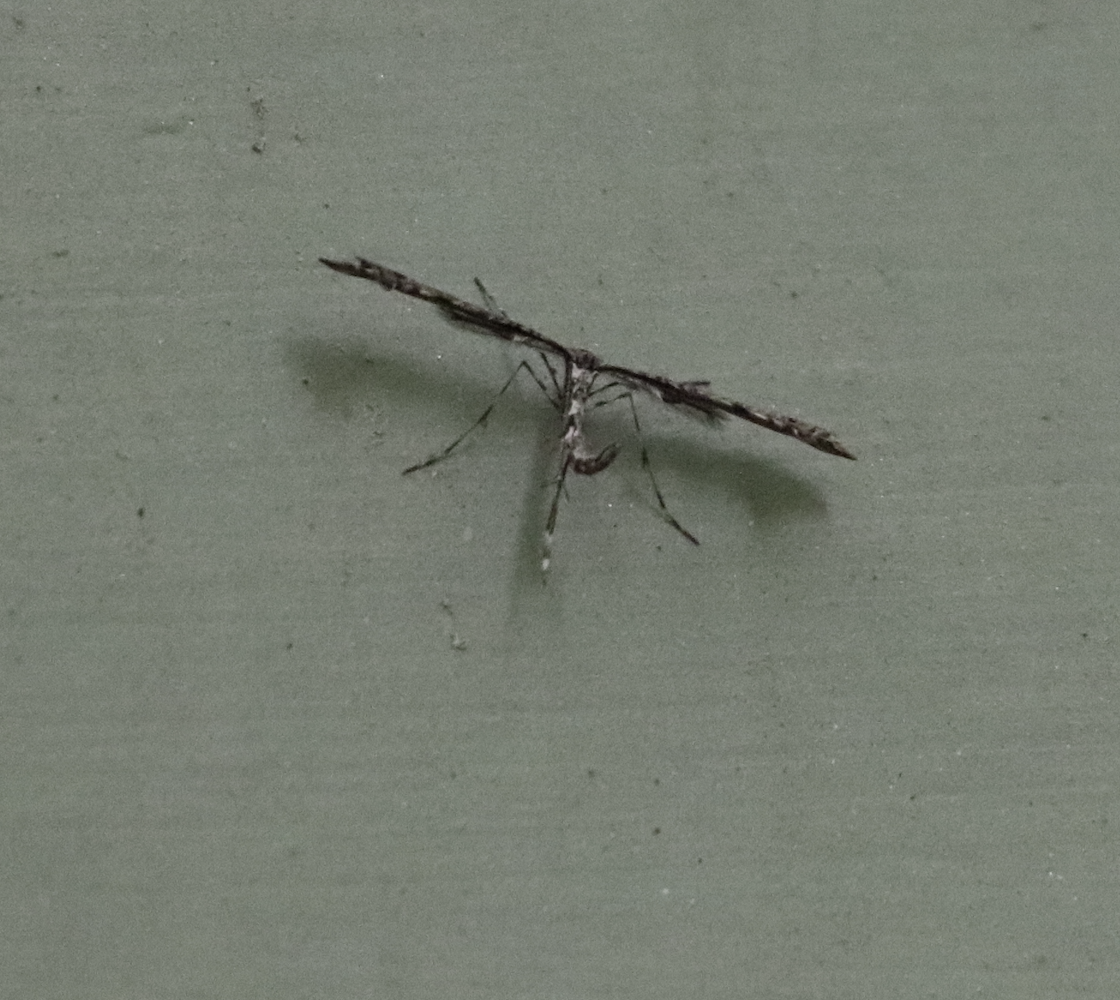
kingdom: Animalia
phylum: Arthropoda
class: Insecta
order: Lepidoptera
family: Pterophoridae
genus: Amblyptilia
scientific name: Amblyptilia pica
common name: Geranium plume moth
